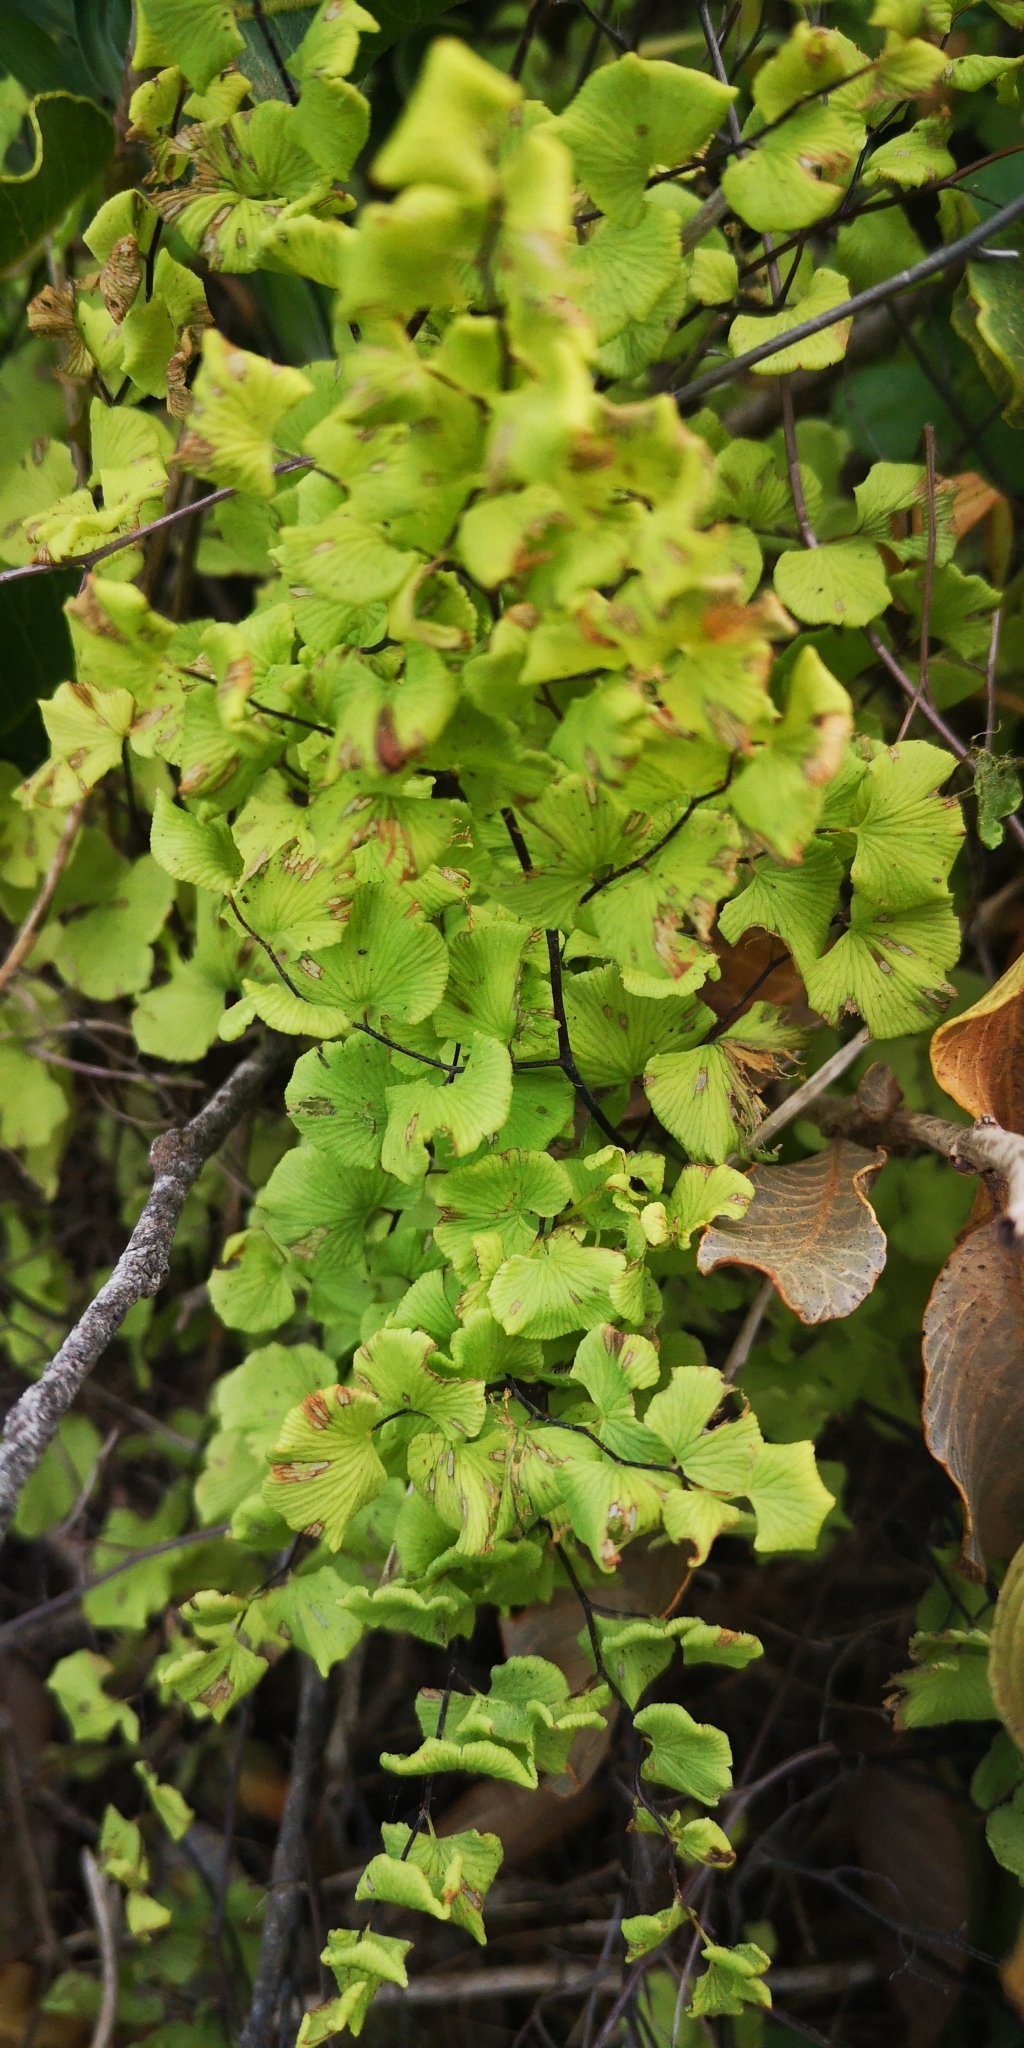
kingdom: Plantae
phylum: Tracheophyta
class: Polypodiopsida
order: Polypodiales
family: Pteridaceae
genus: Adiantum
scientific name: Adiantum chilense
